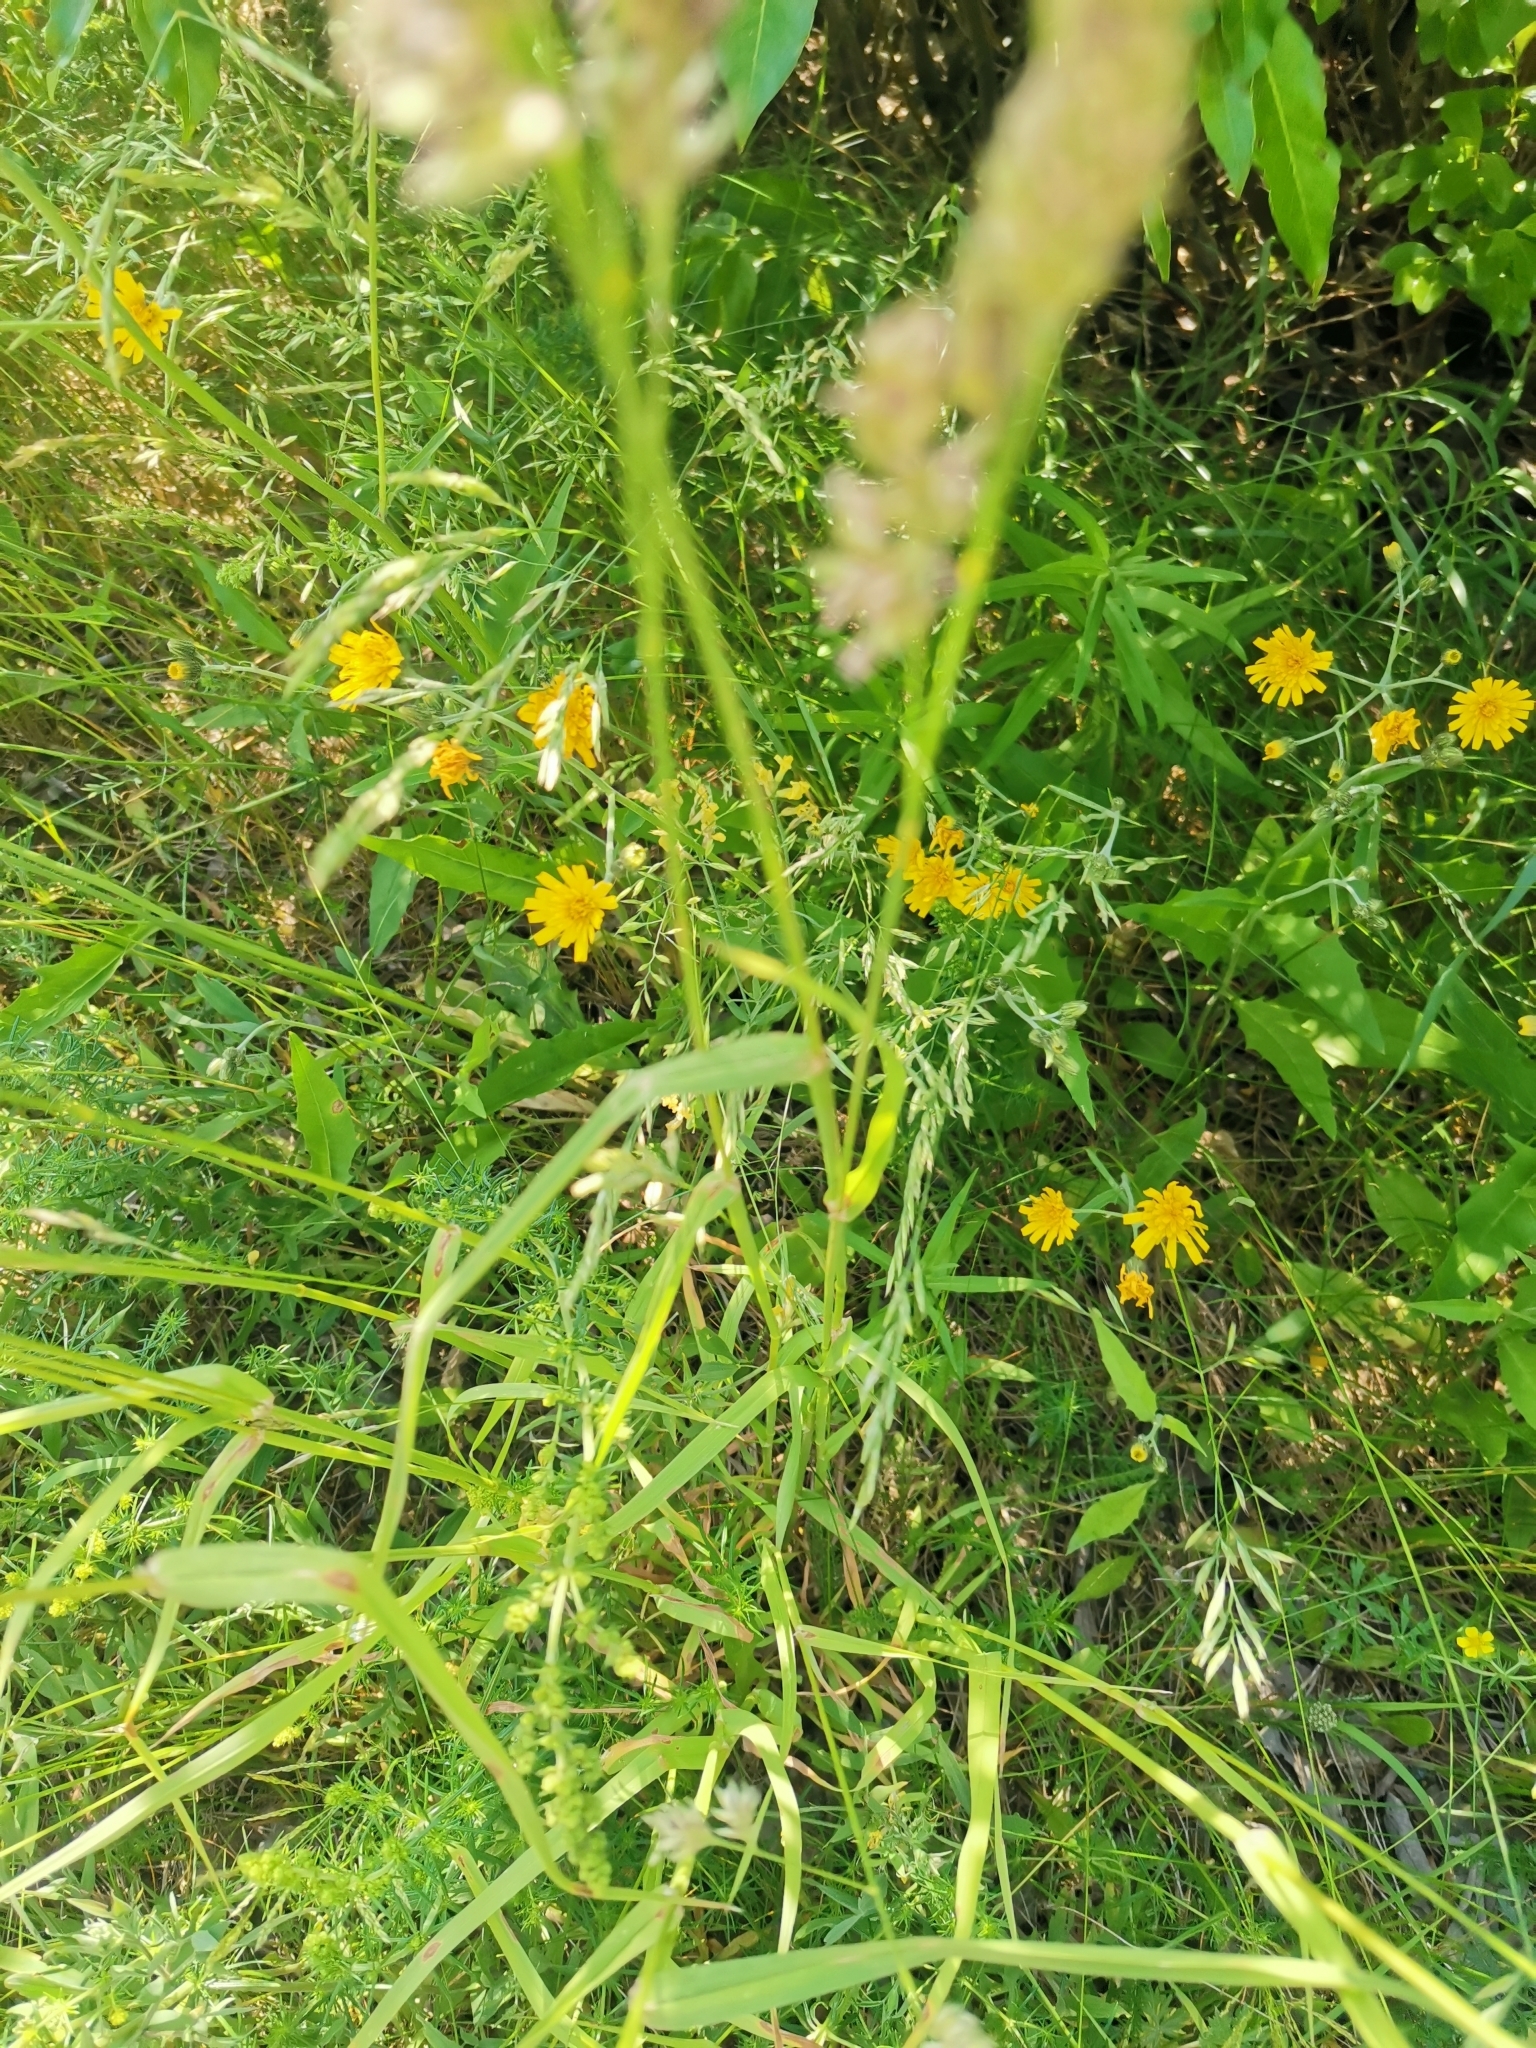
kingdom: Plantae
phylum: Tracheophyta
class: Liliopsida
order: Poales
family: Poaceae
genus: Dactylis
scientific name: Dactylis glomerata
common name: Orchardgrass
